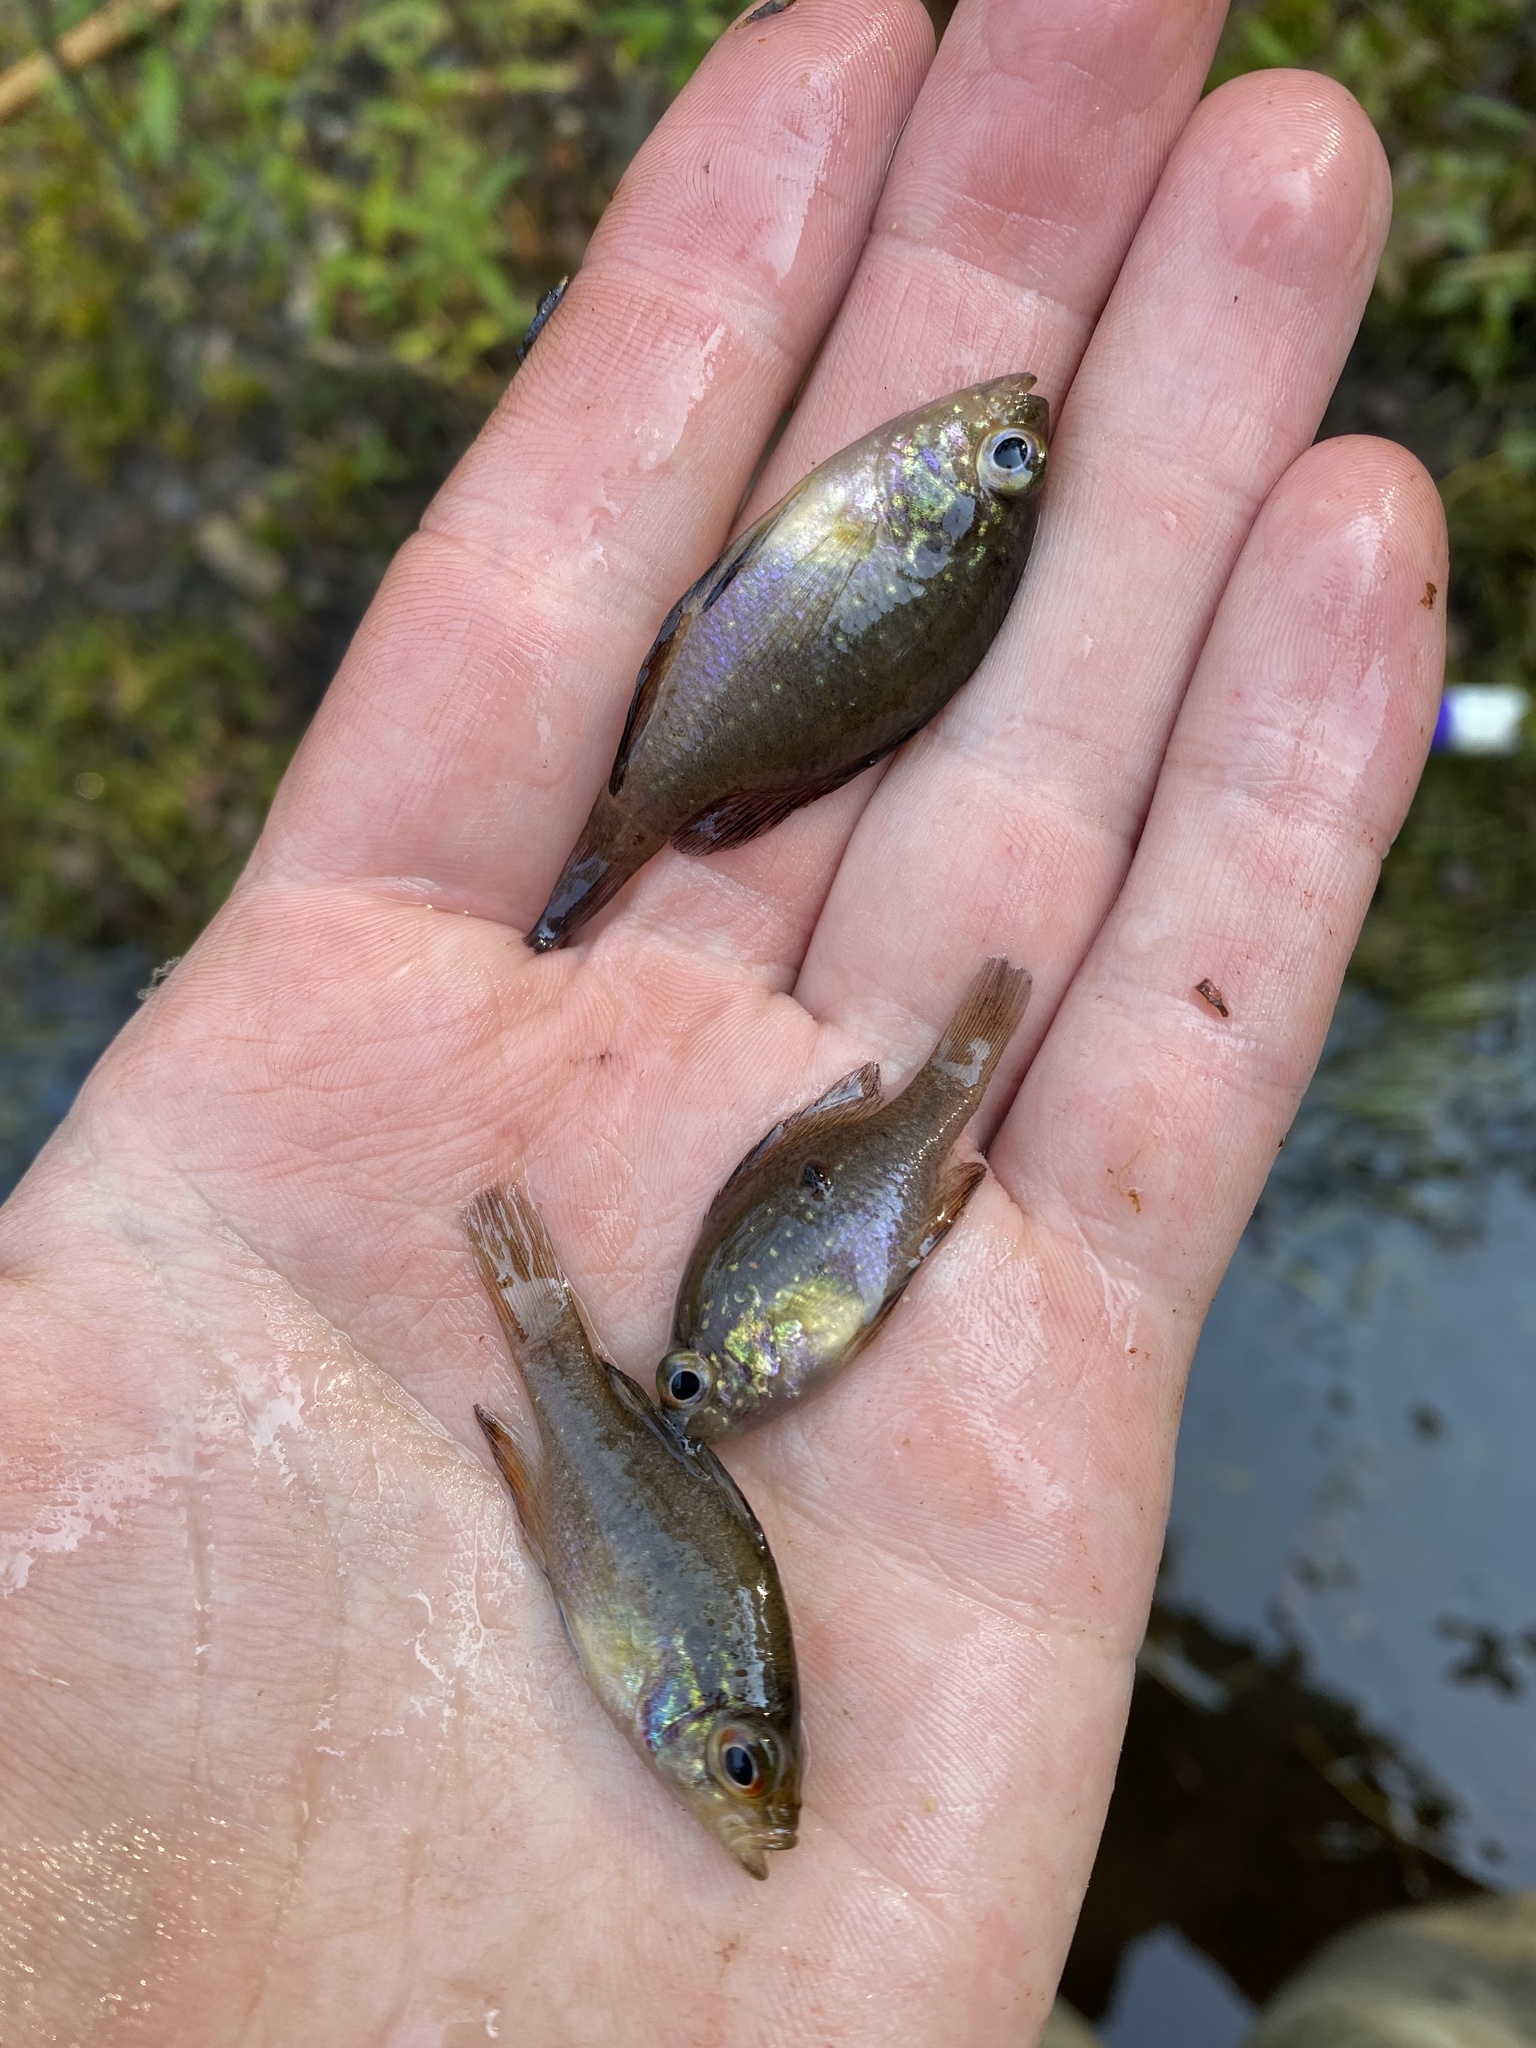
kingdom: Animalia
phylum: Chordata
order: Perciformes
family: Centrarchidae
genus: Enneacanthus
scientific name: Enneacanthus gloriosus
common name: Bluespotted sunfish
